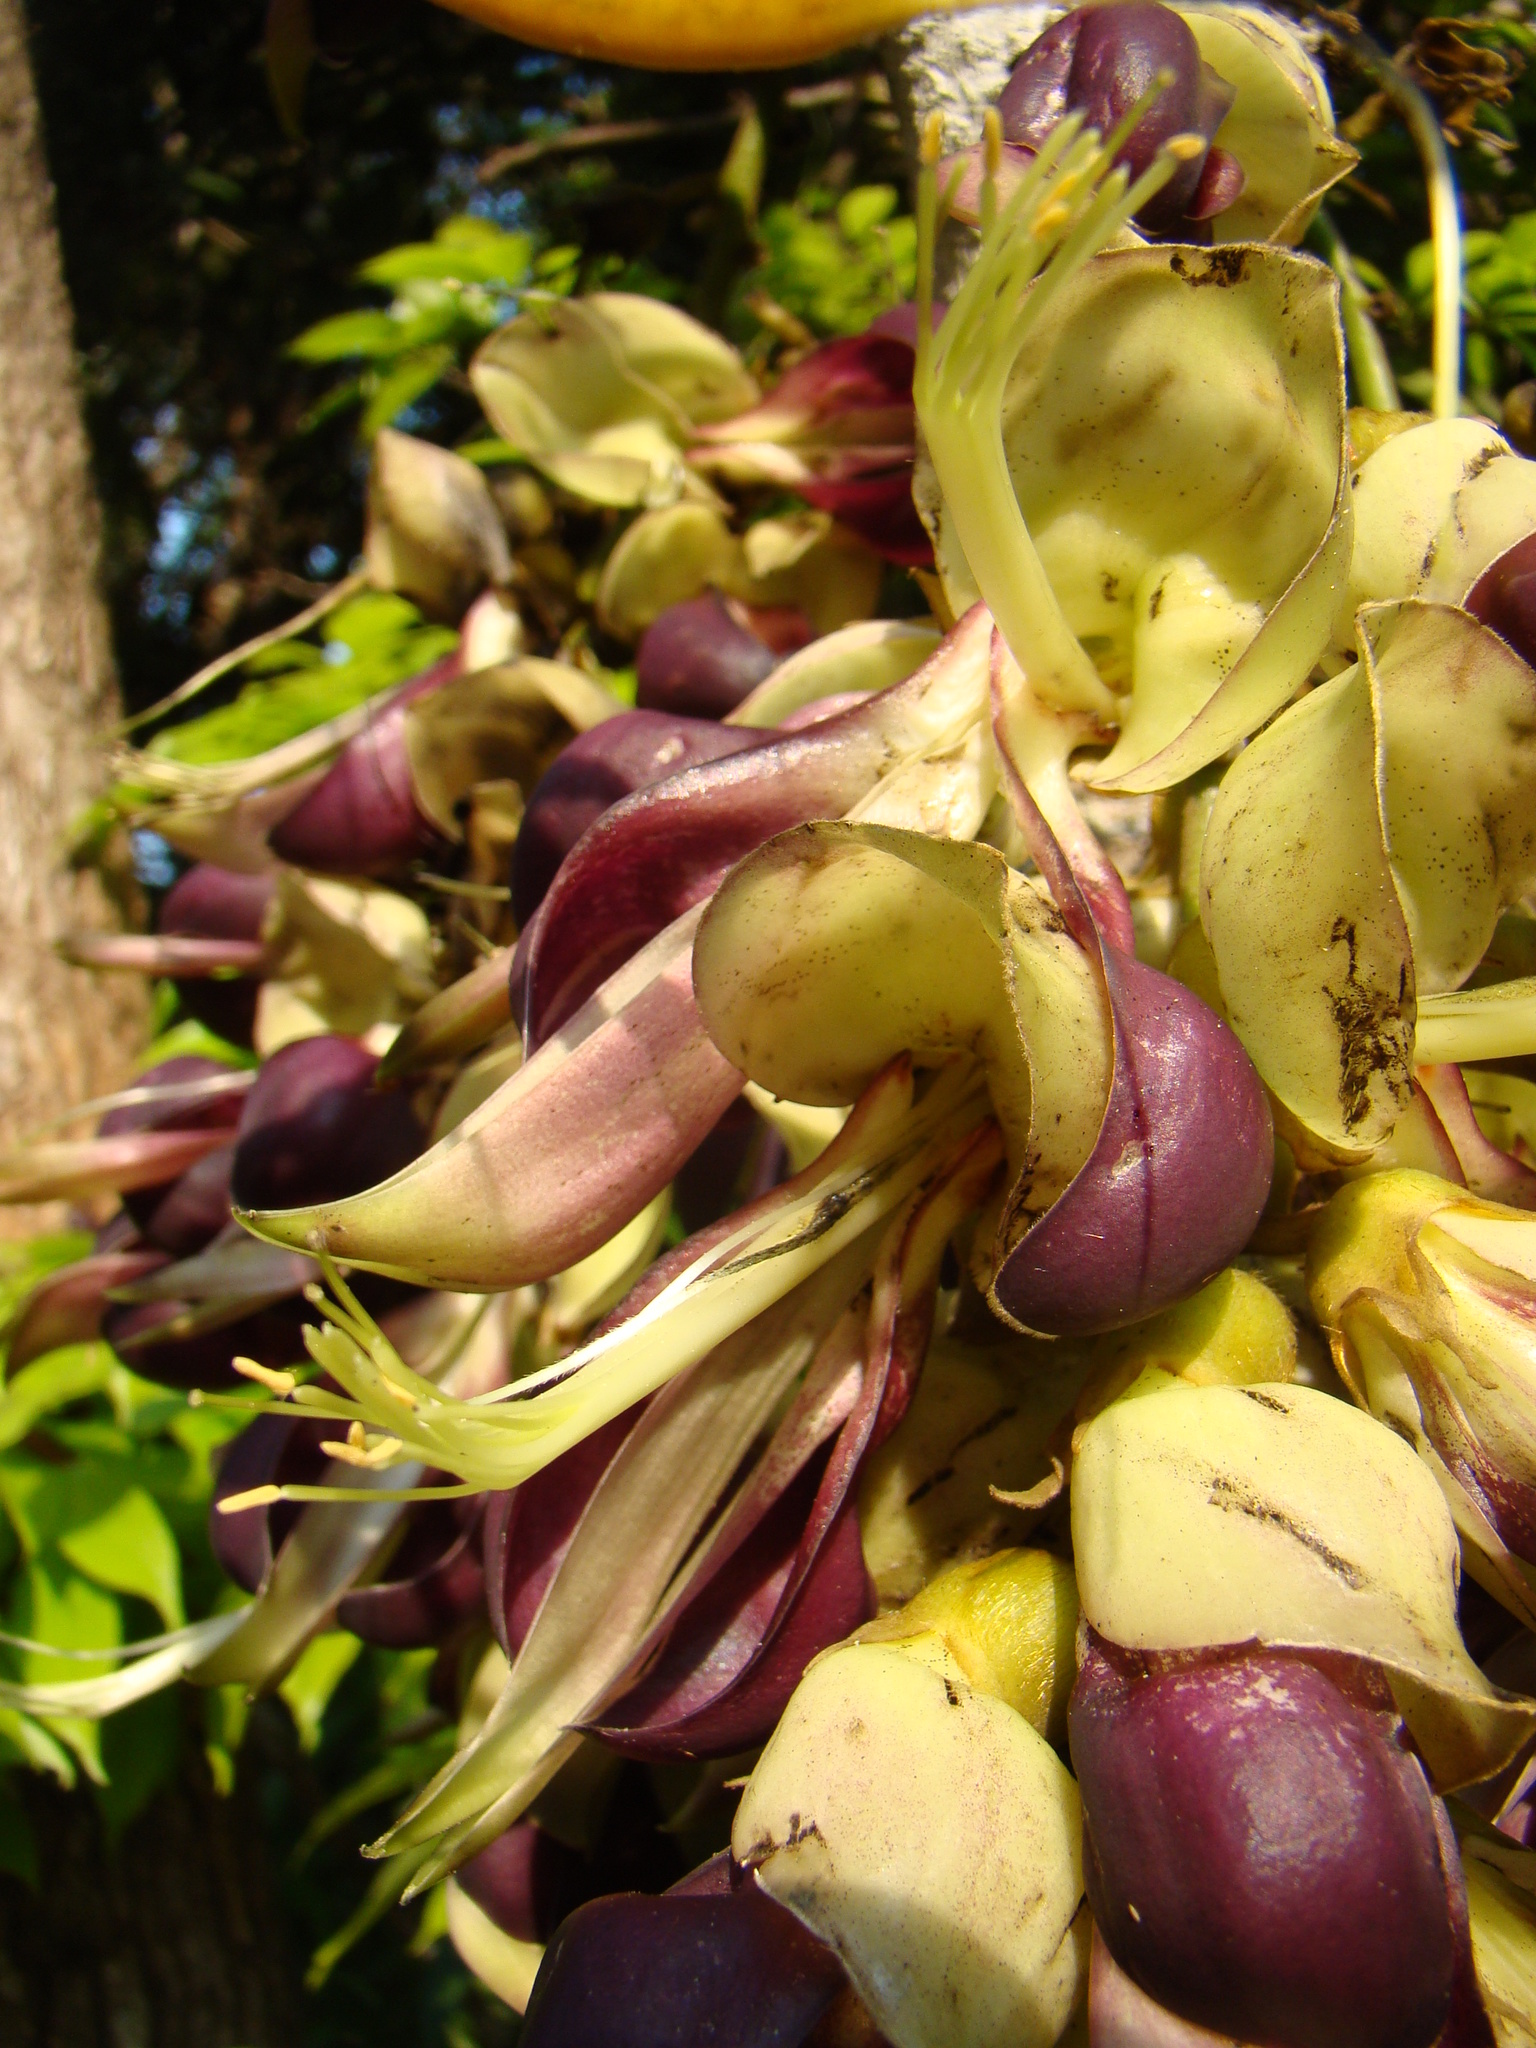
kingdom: Plantae
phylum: Tracheophyta
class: Magnoliopsida
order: Fabales
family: Fabaceae
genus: Mucuna
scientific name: Mucuna macrocarpa
